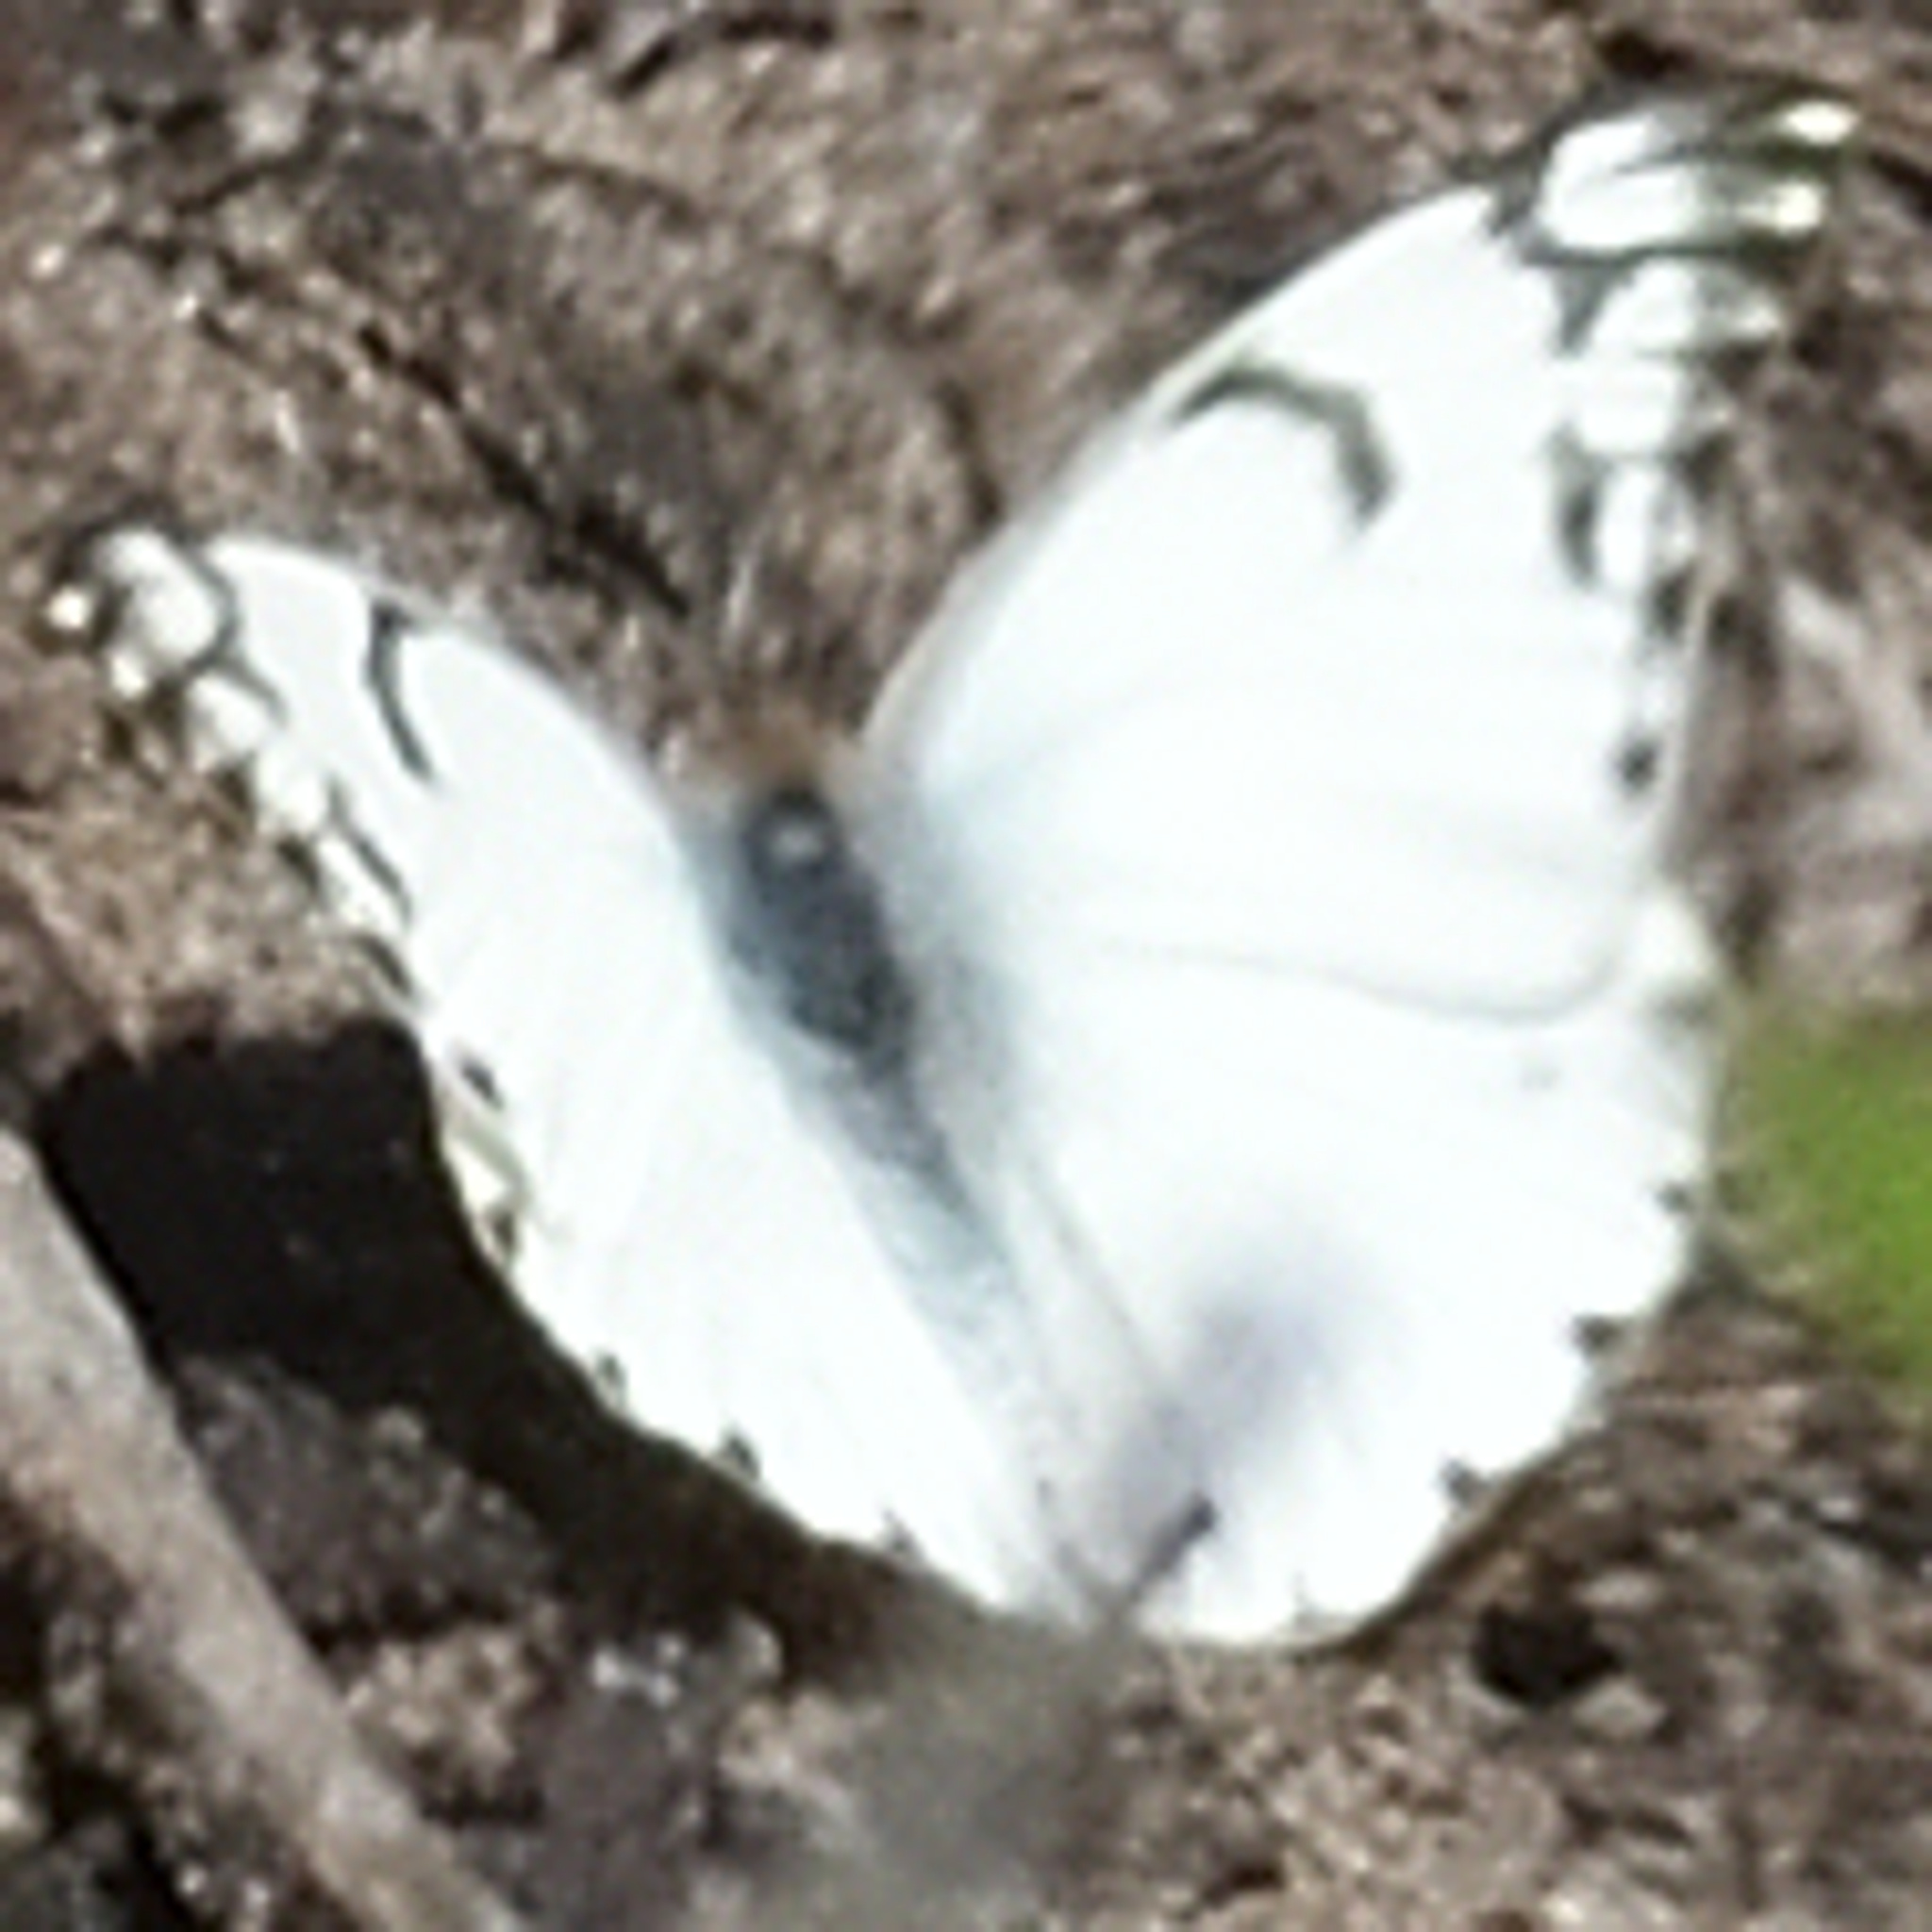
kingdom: Animalia
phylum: Arthropoda
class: Insecta
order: Lepidoptera
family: Pieridae
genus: Belenois
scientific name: Belenois gidica
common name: Pointed caper white
